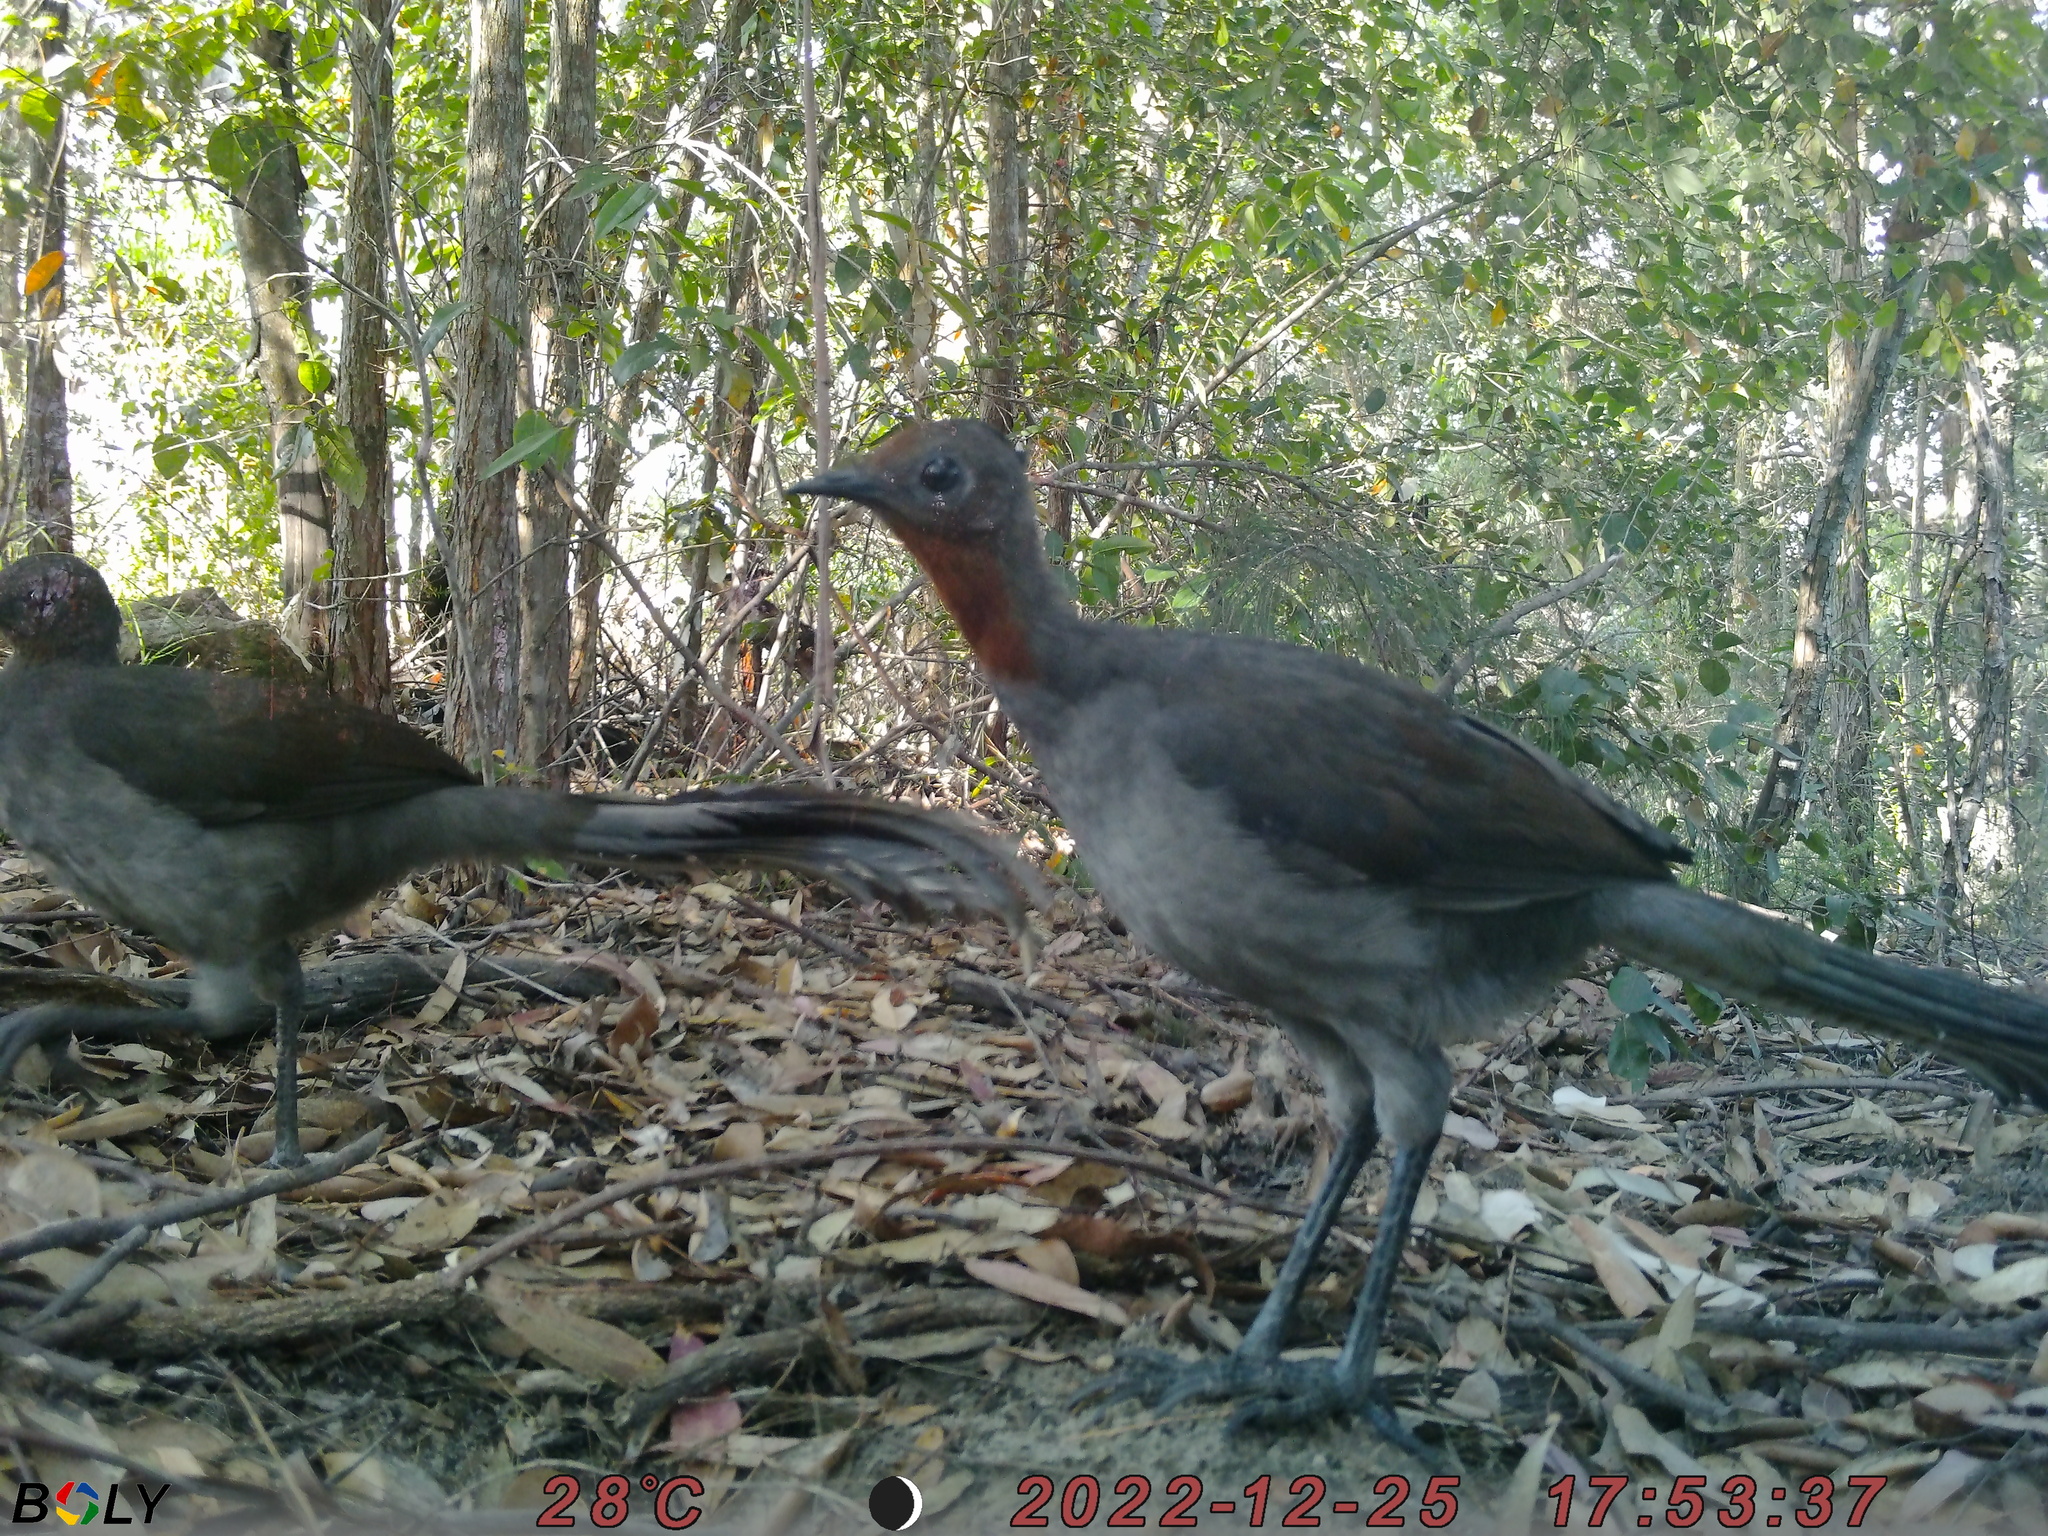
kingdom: Animalia
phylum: Chordata
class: Aves
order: Passeriformes
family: Menuridae
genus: Menura
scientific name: Menura novaehollandiae
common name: Superb lyrebird
